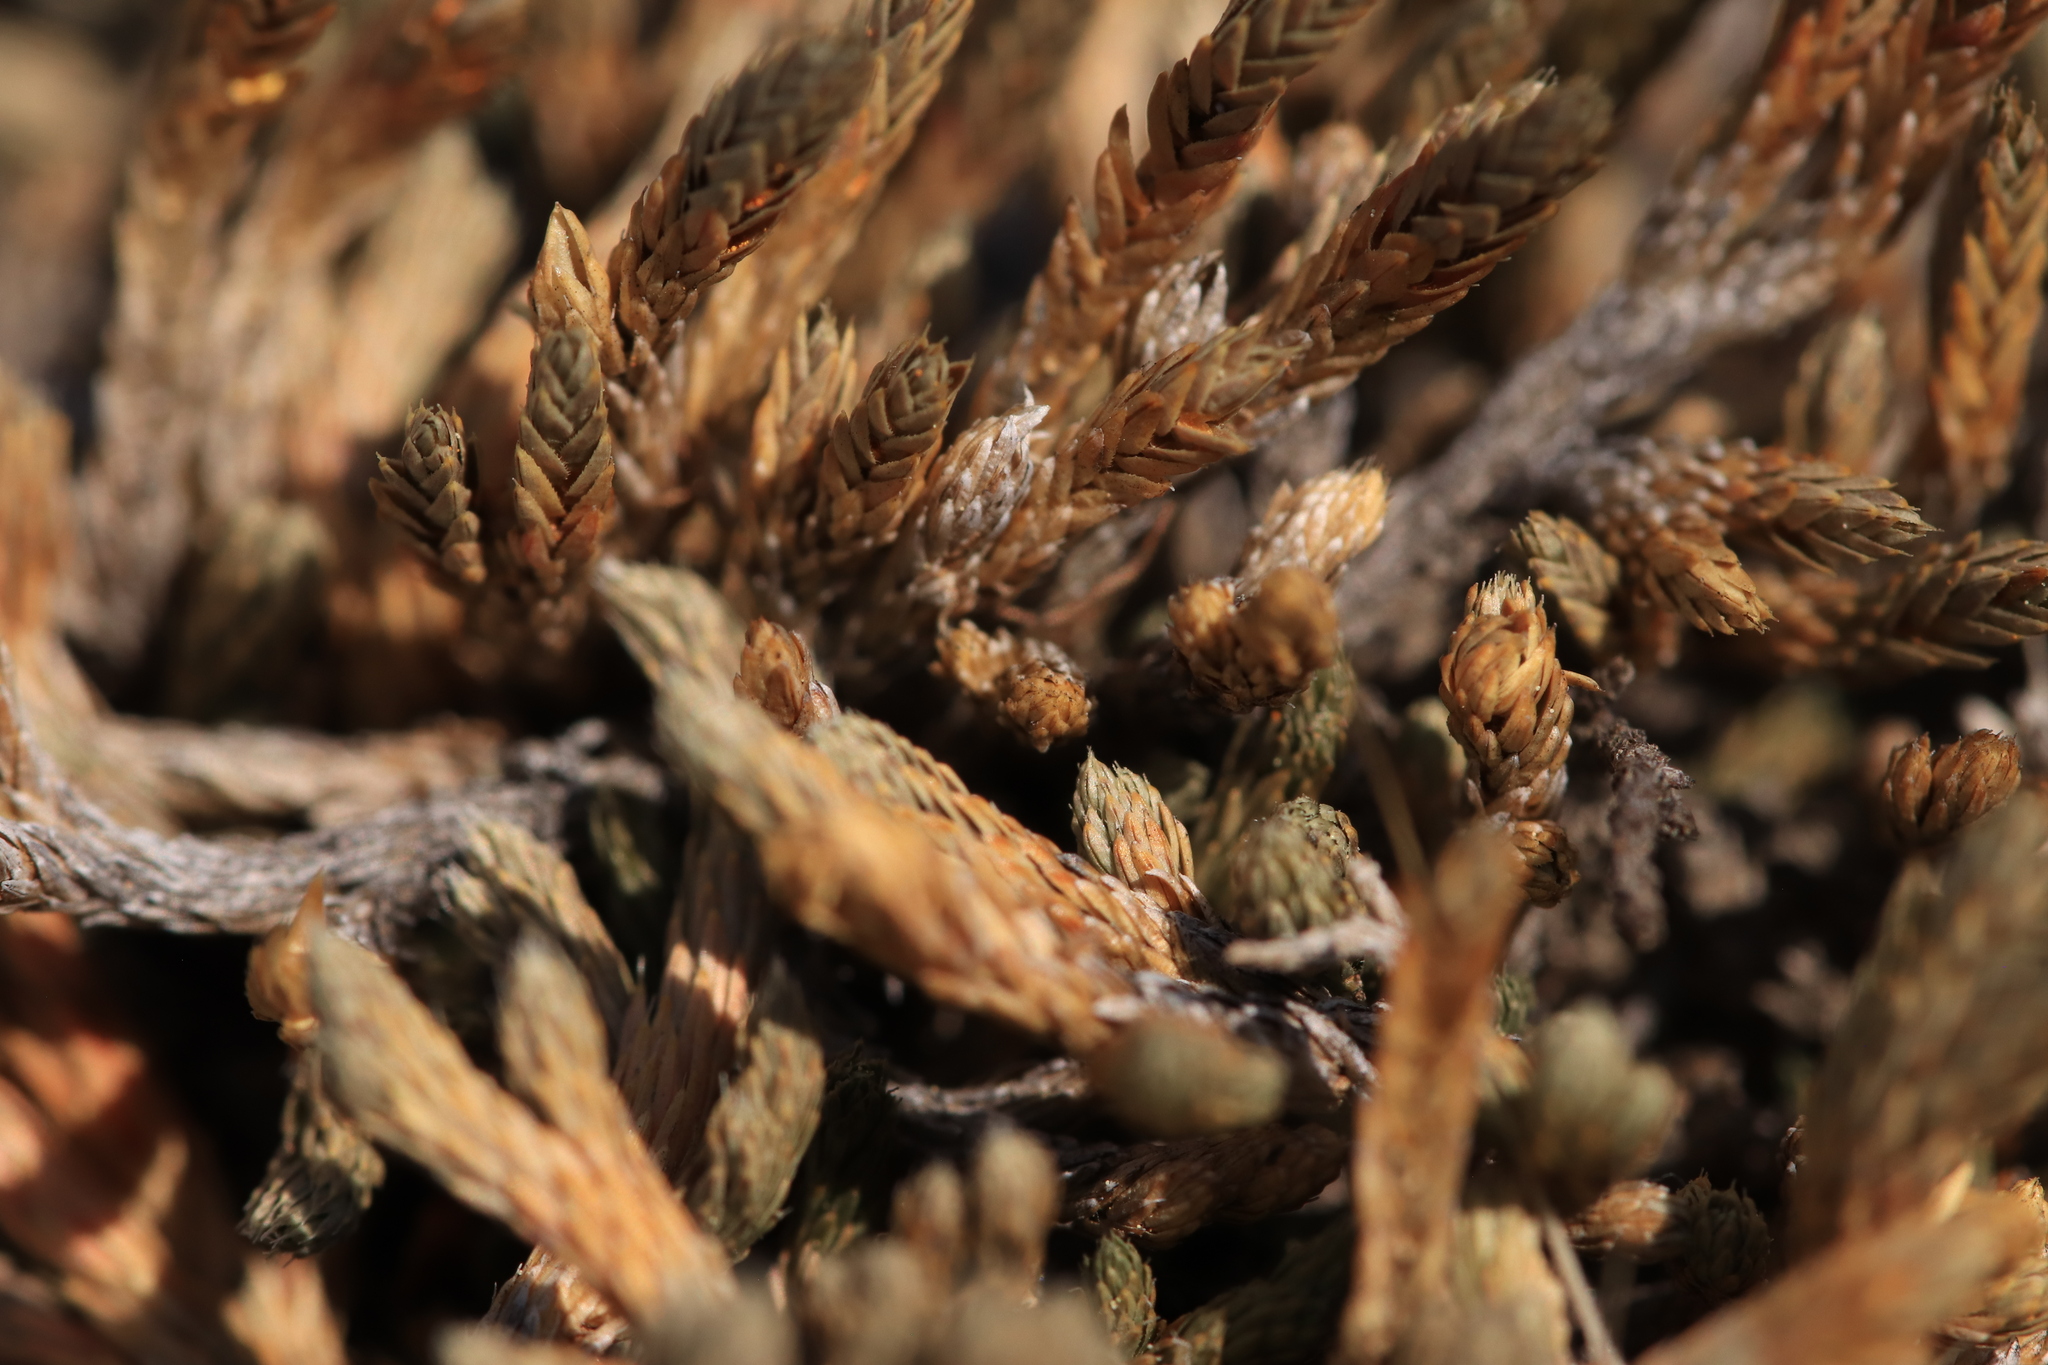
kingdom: Plantae
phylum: Tracheophyta
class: Lycopodiopsida
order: Selaginellales
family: Selaginellaceae
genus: Selaginella
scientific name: Selaginella wallacei
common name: Wallace's selaginella
